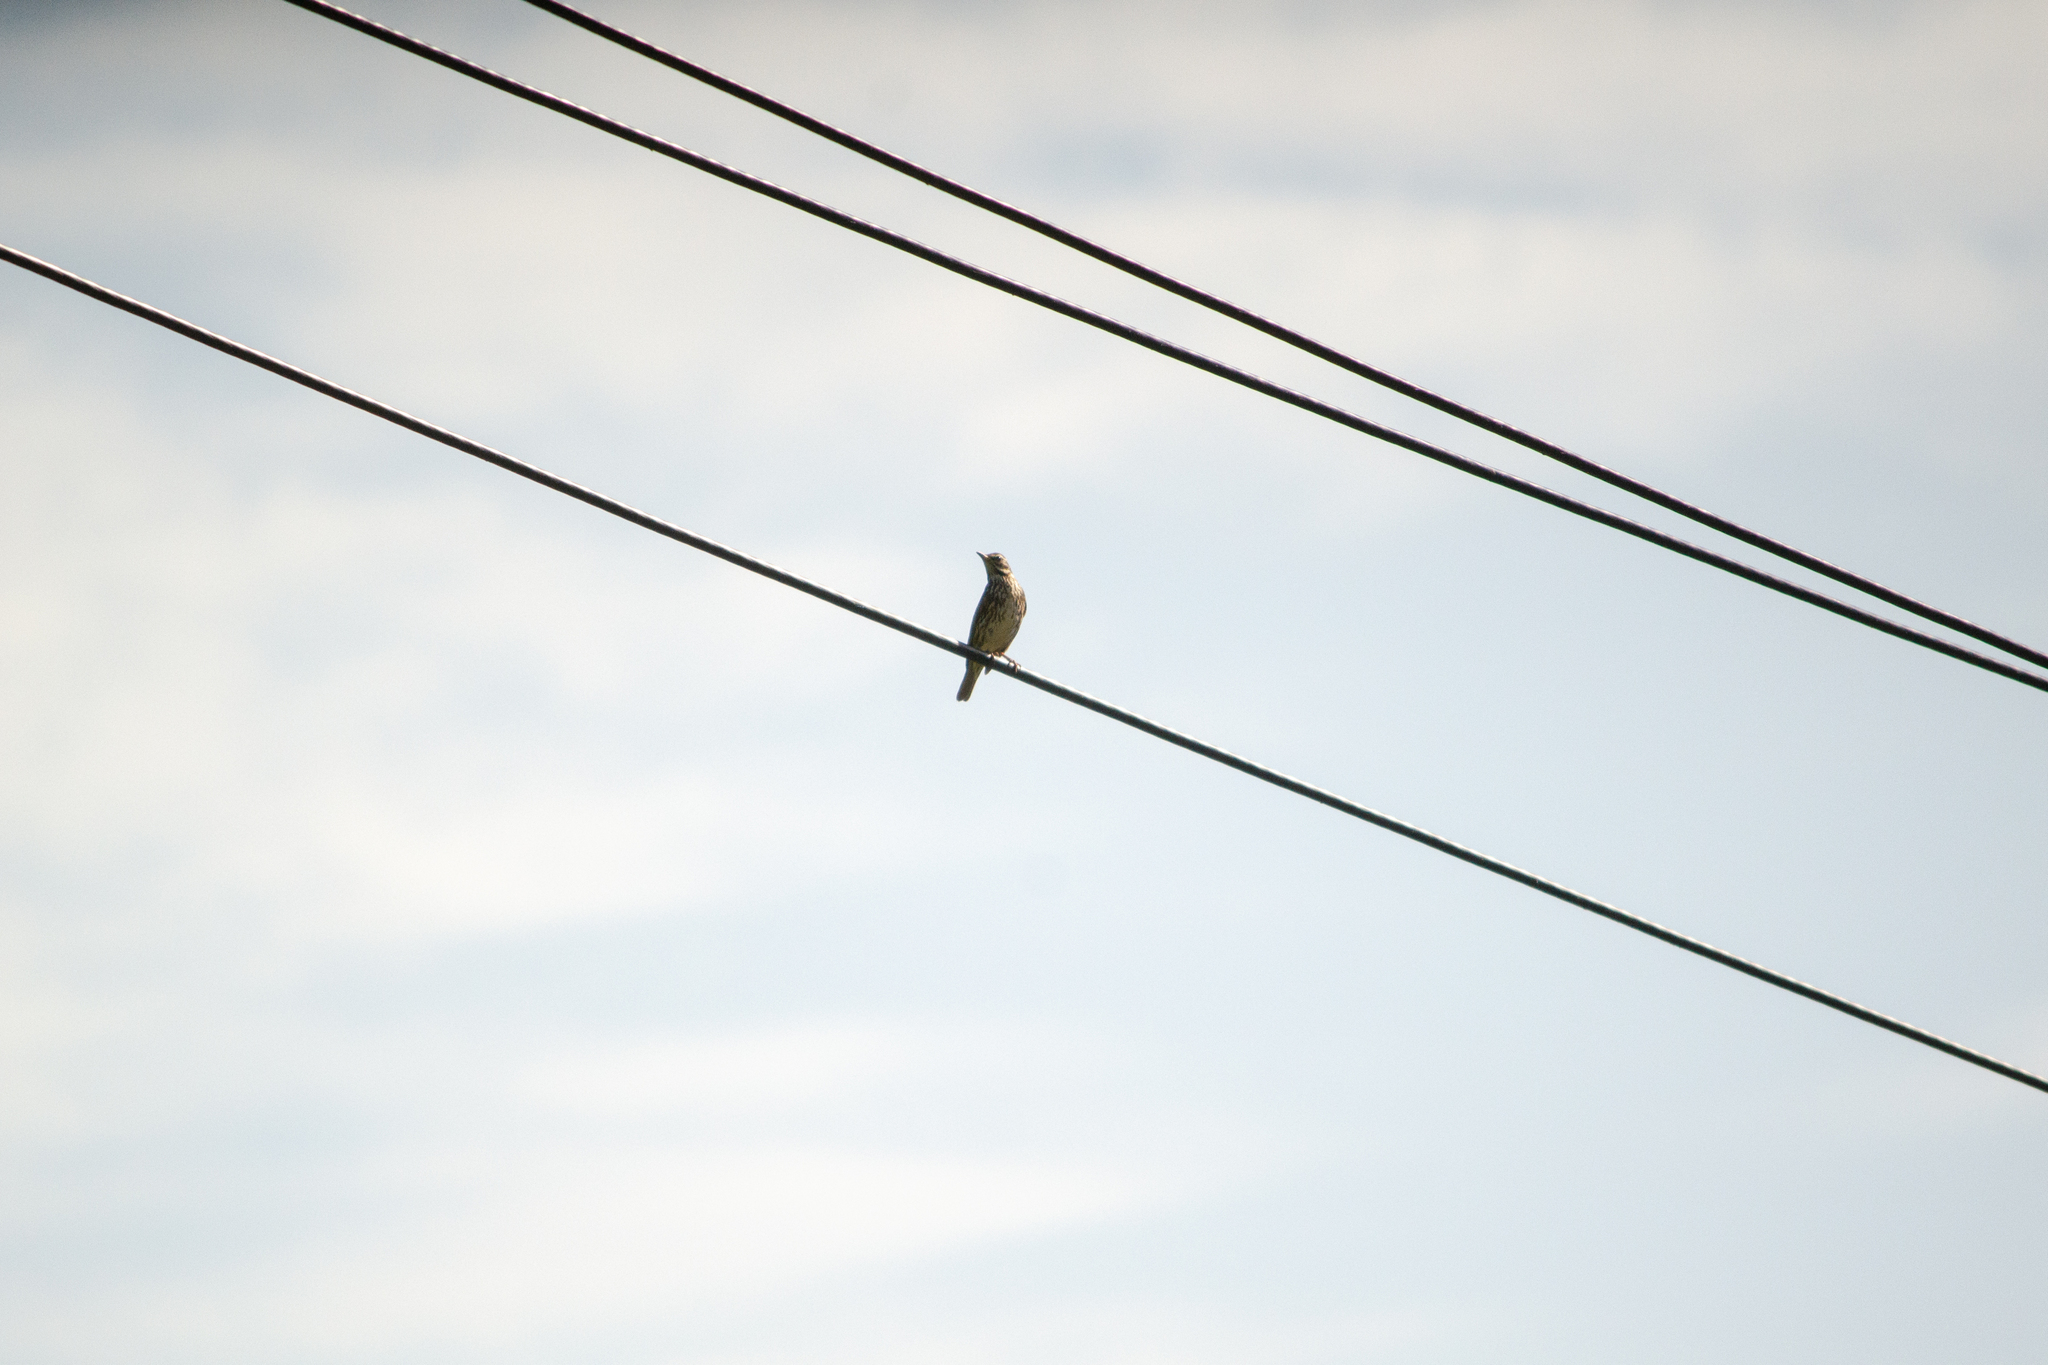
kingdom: Animalia
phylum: Chordata
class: Aves
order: Passeriformes
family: Turdidae
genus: Turdus
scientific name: Turdus iliacus
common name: Redwing
